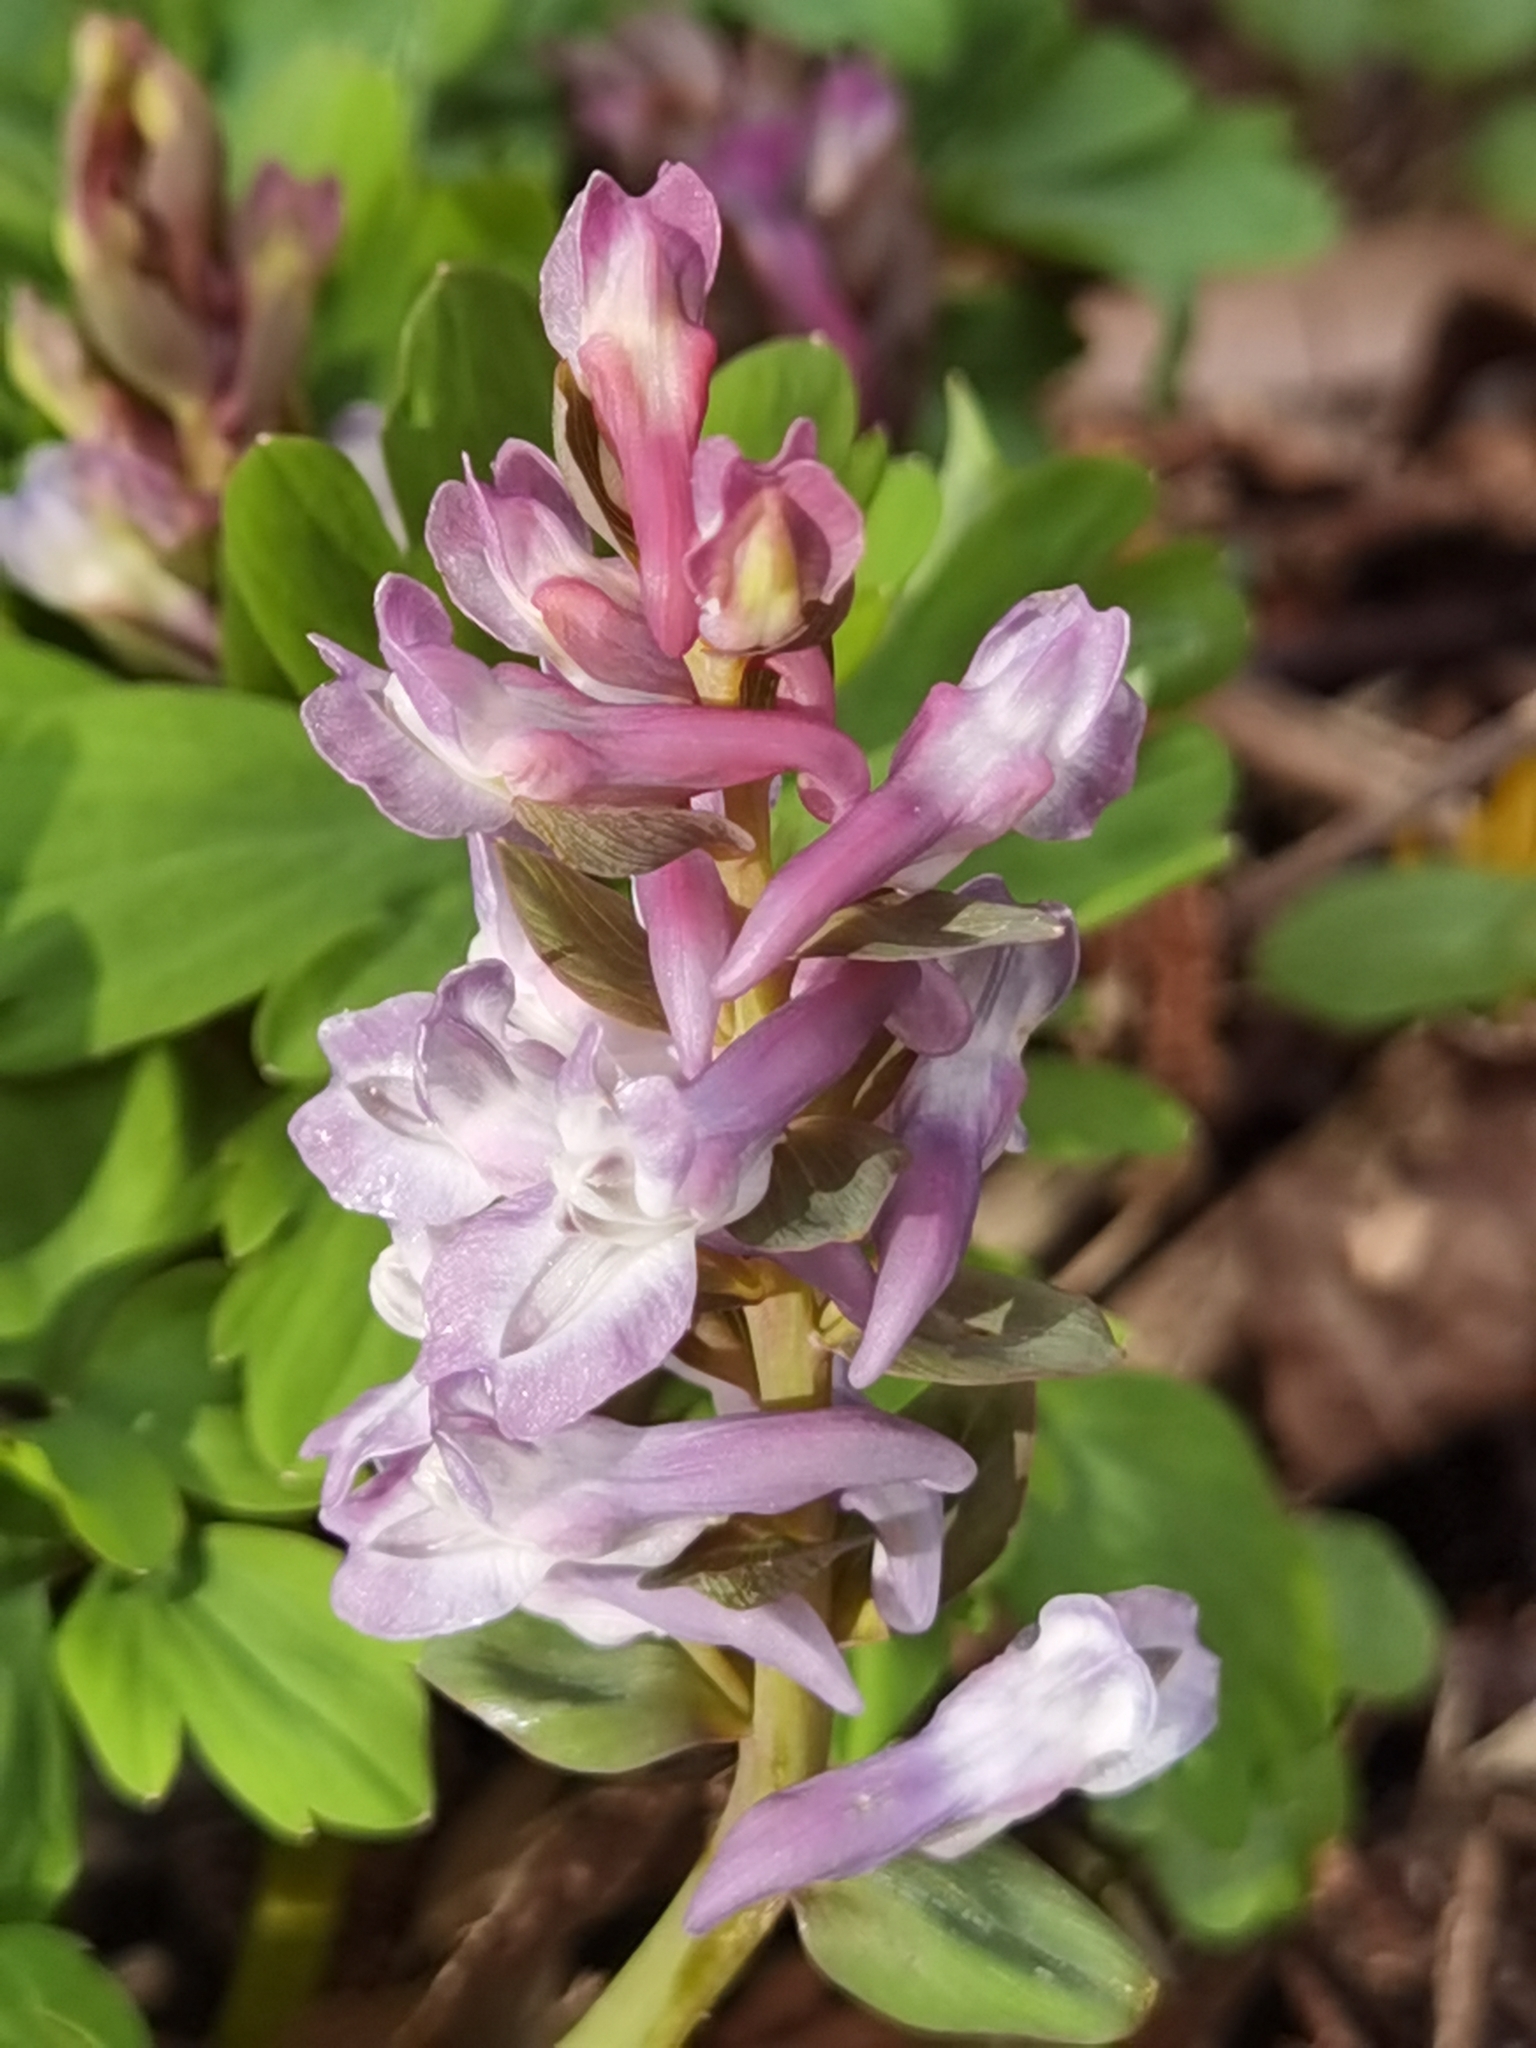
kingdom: Plantae
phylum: Tracheophyta
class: Magnoliopsida
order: Ranunculales
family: Papaveraceae
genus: Corydalis
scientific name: Corydalis cava
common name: Hollowroot
